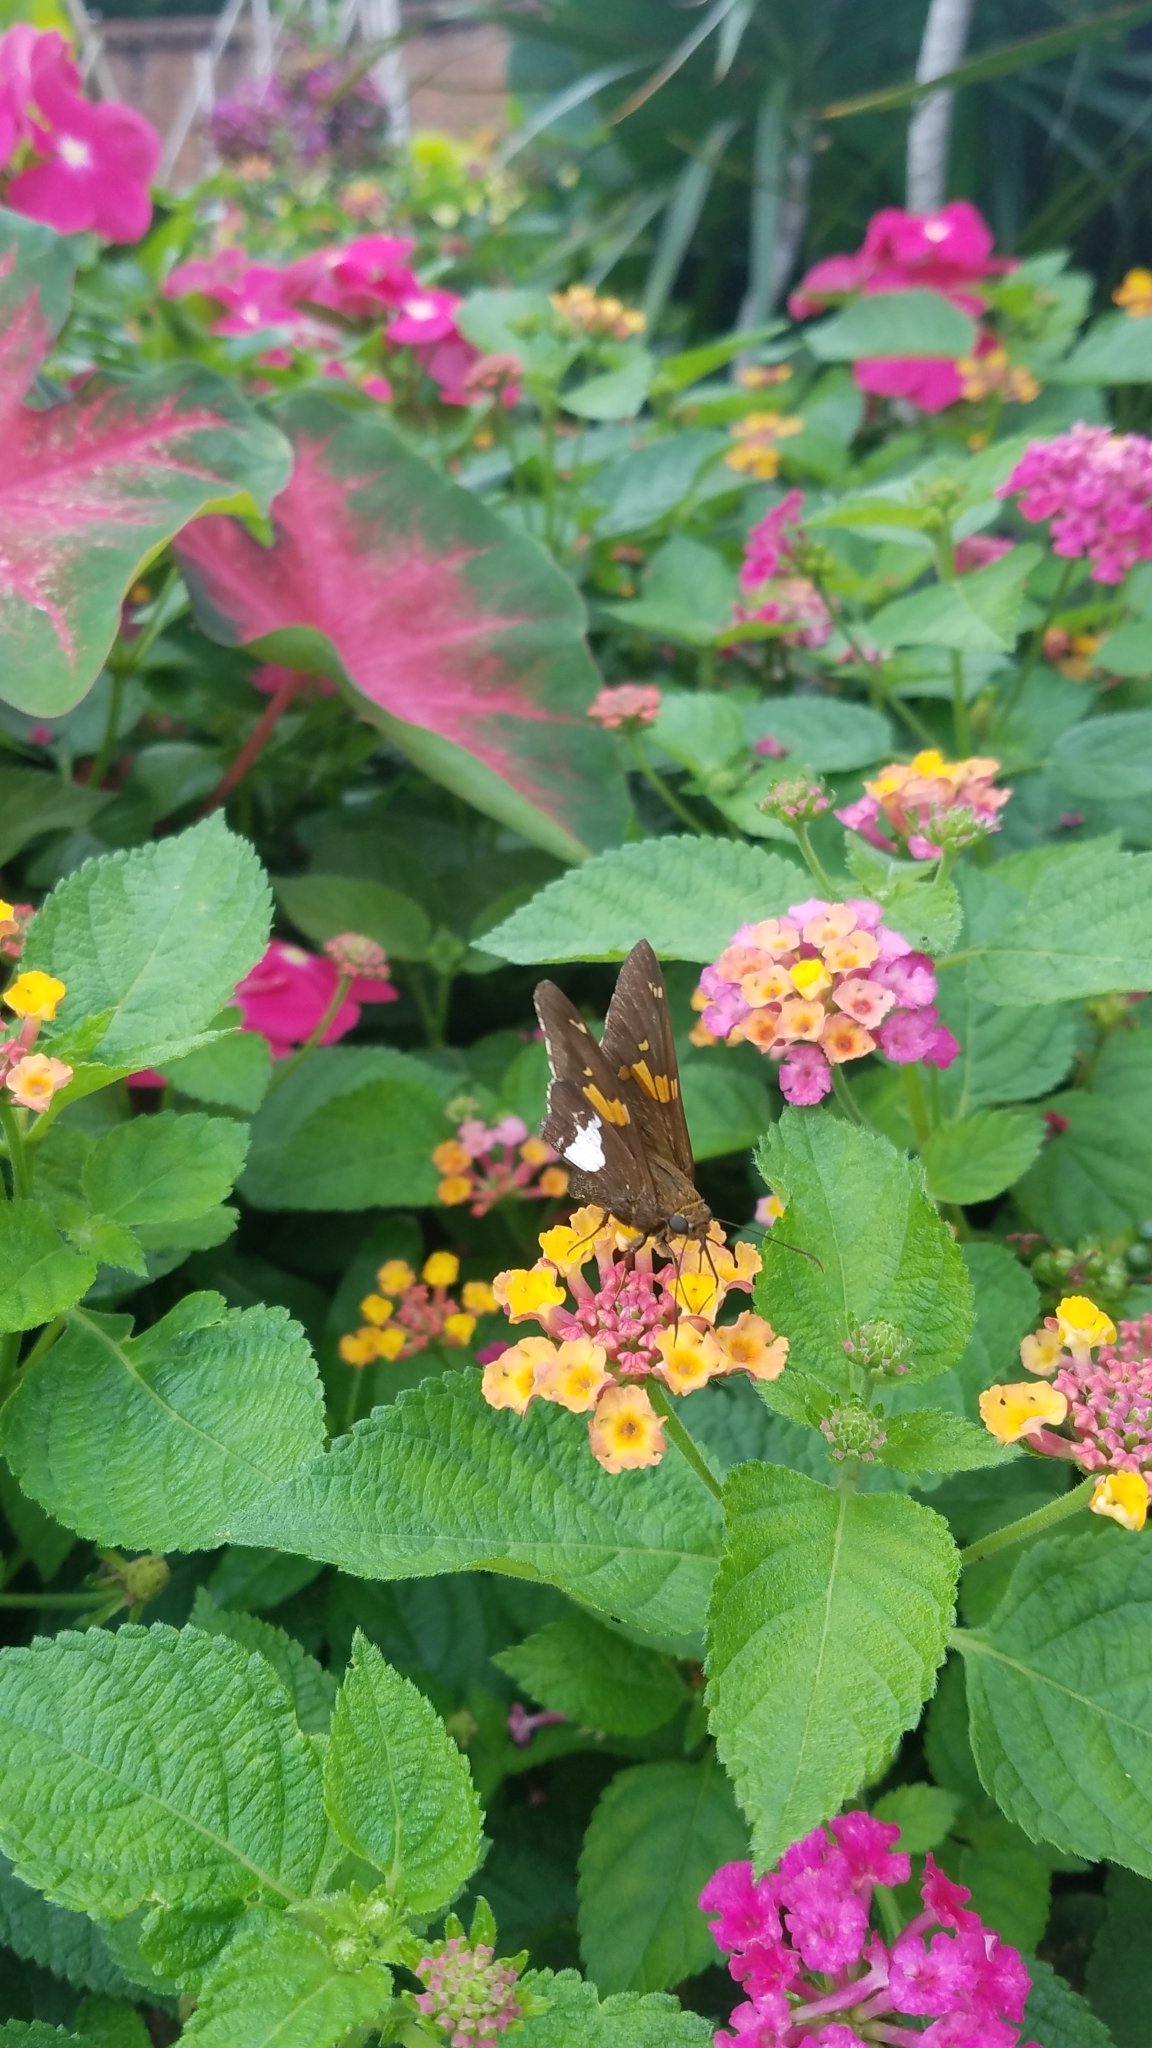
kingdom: Animalia
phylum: Arthropoda
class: Insecta
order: Lepidoptera
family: Hesperiidae
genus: Epargyreus
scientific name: Epargyreus clarus
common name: Silver-spotted skipper
